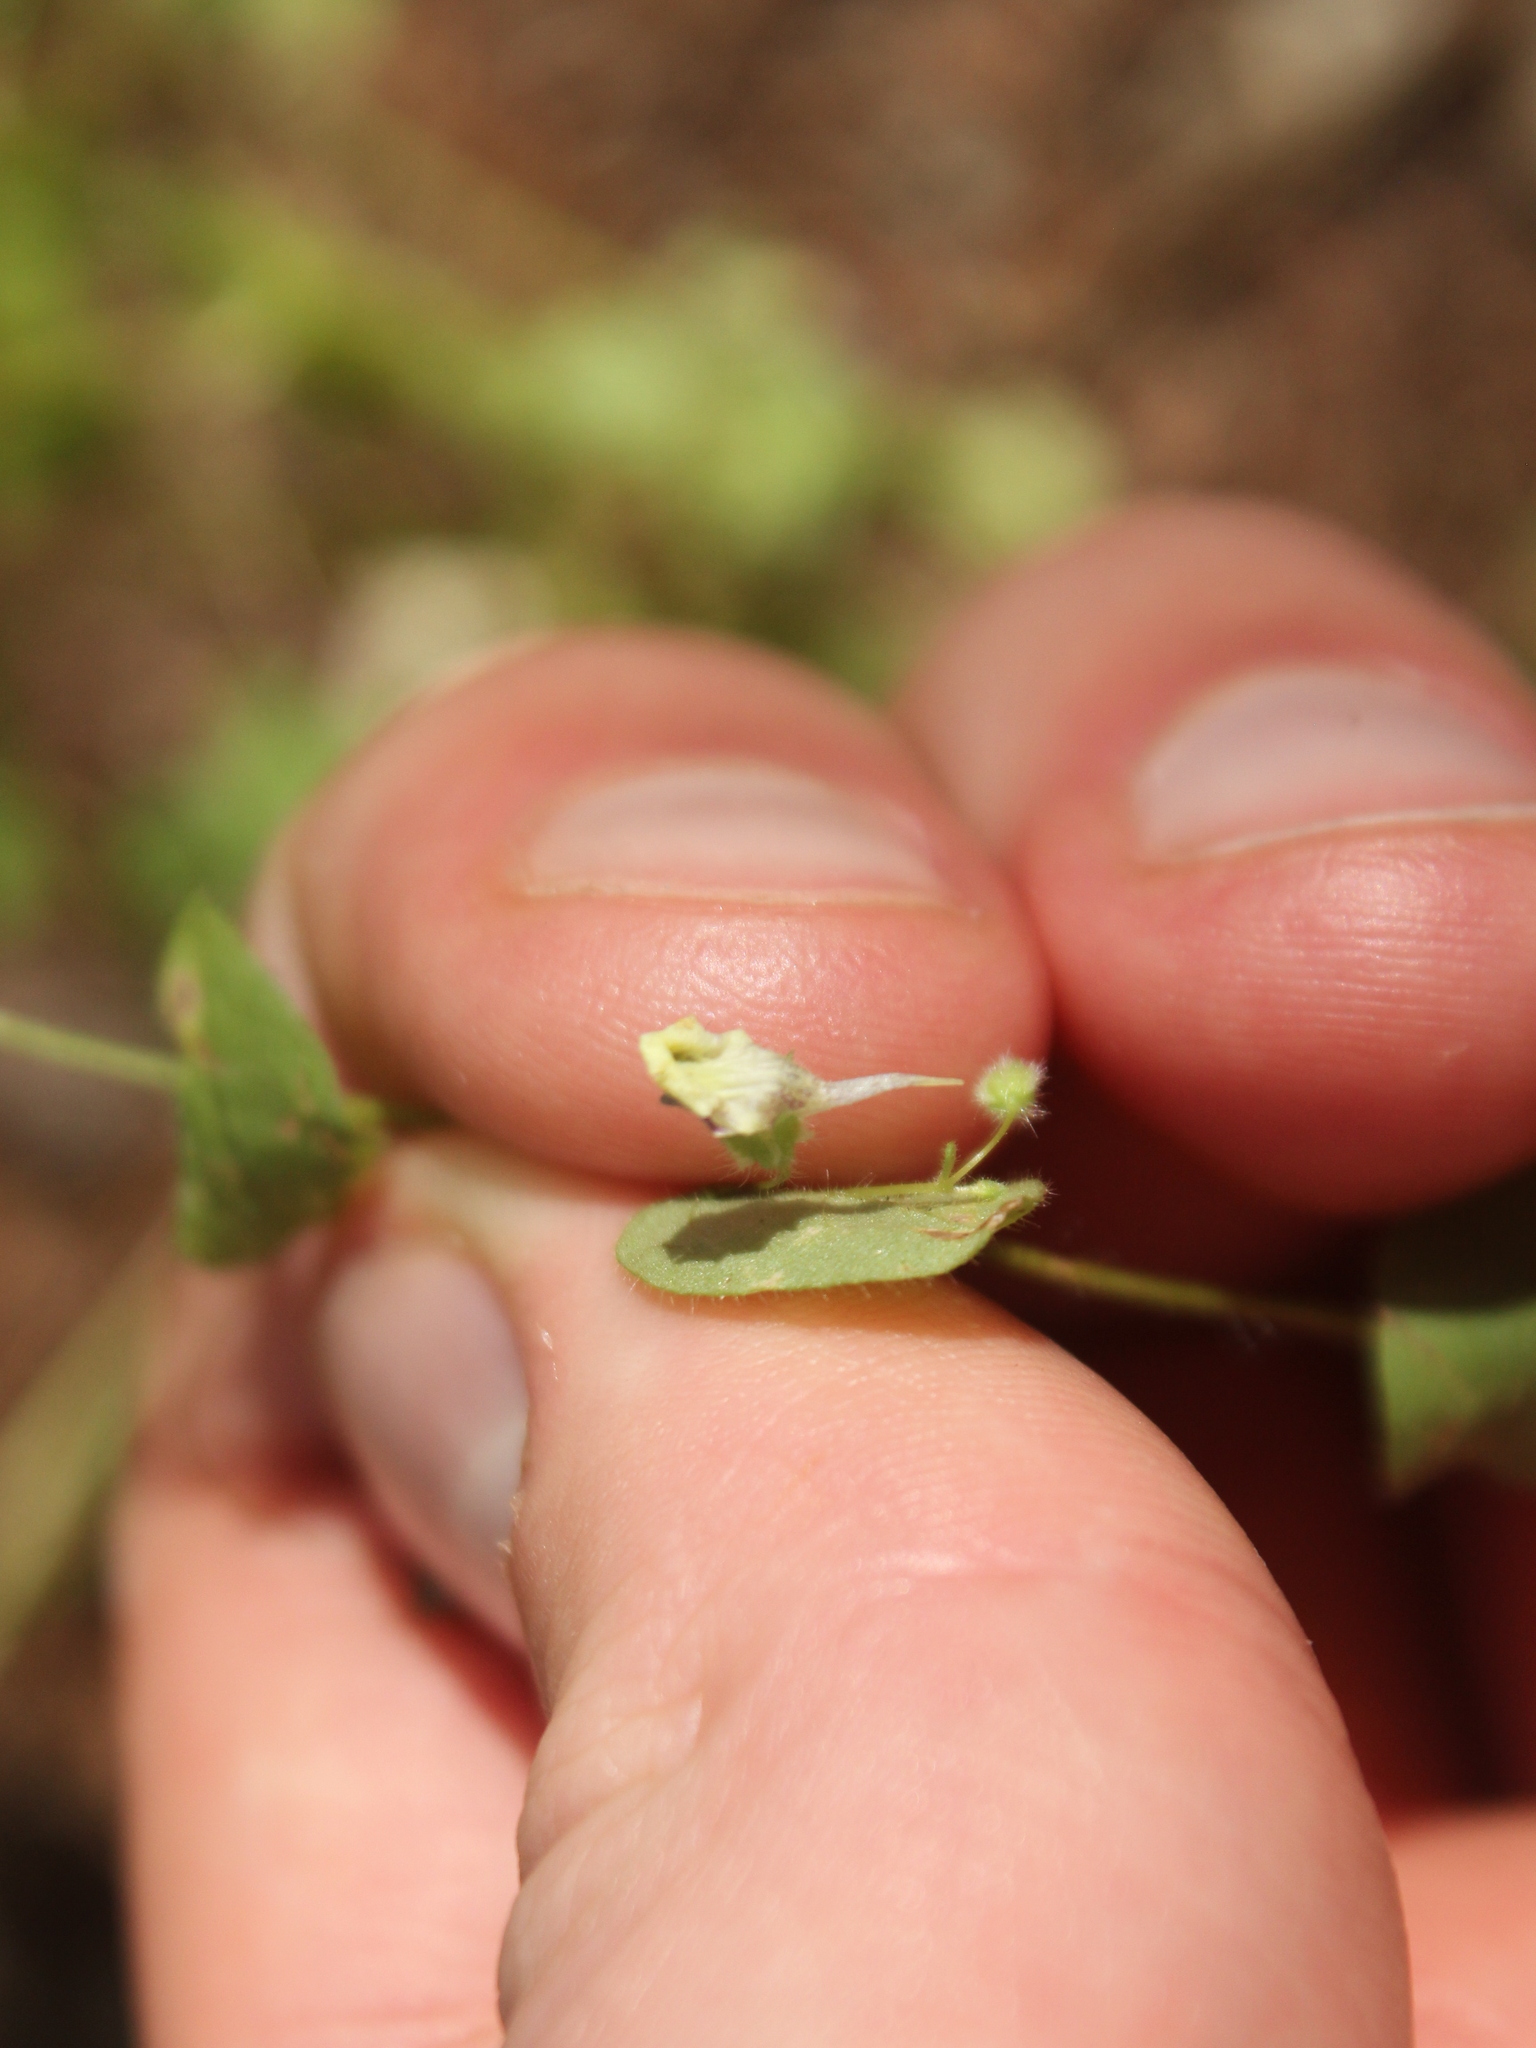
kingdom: Plantae
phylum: Tracheophyta
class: Magnoliopsida
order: Lamiales
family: Plantaginaceae
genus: Kickxia
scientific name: Kickxia elatine
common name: Sharp-leaved fluellen
